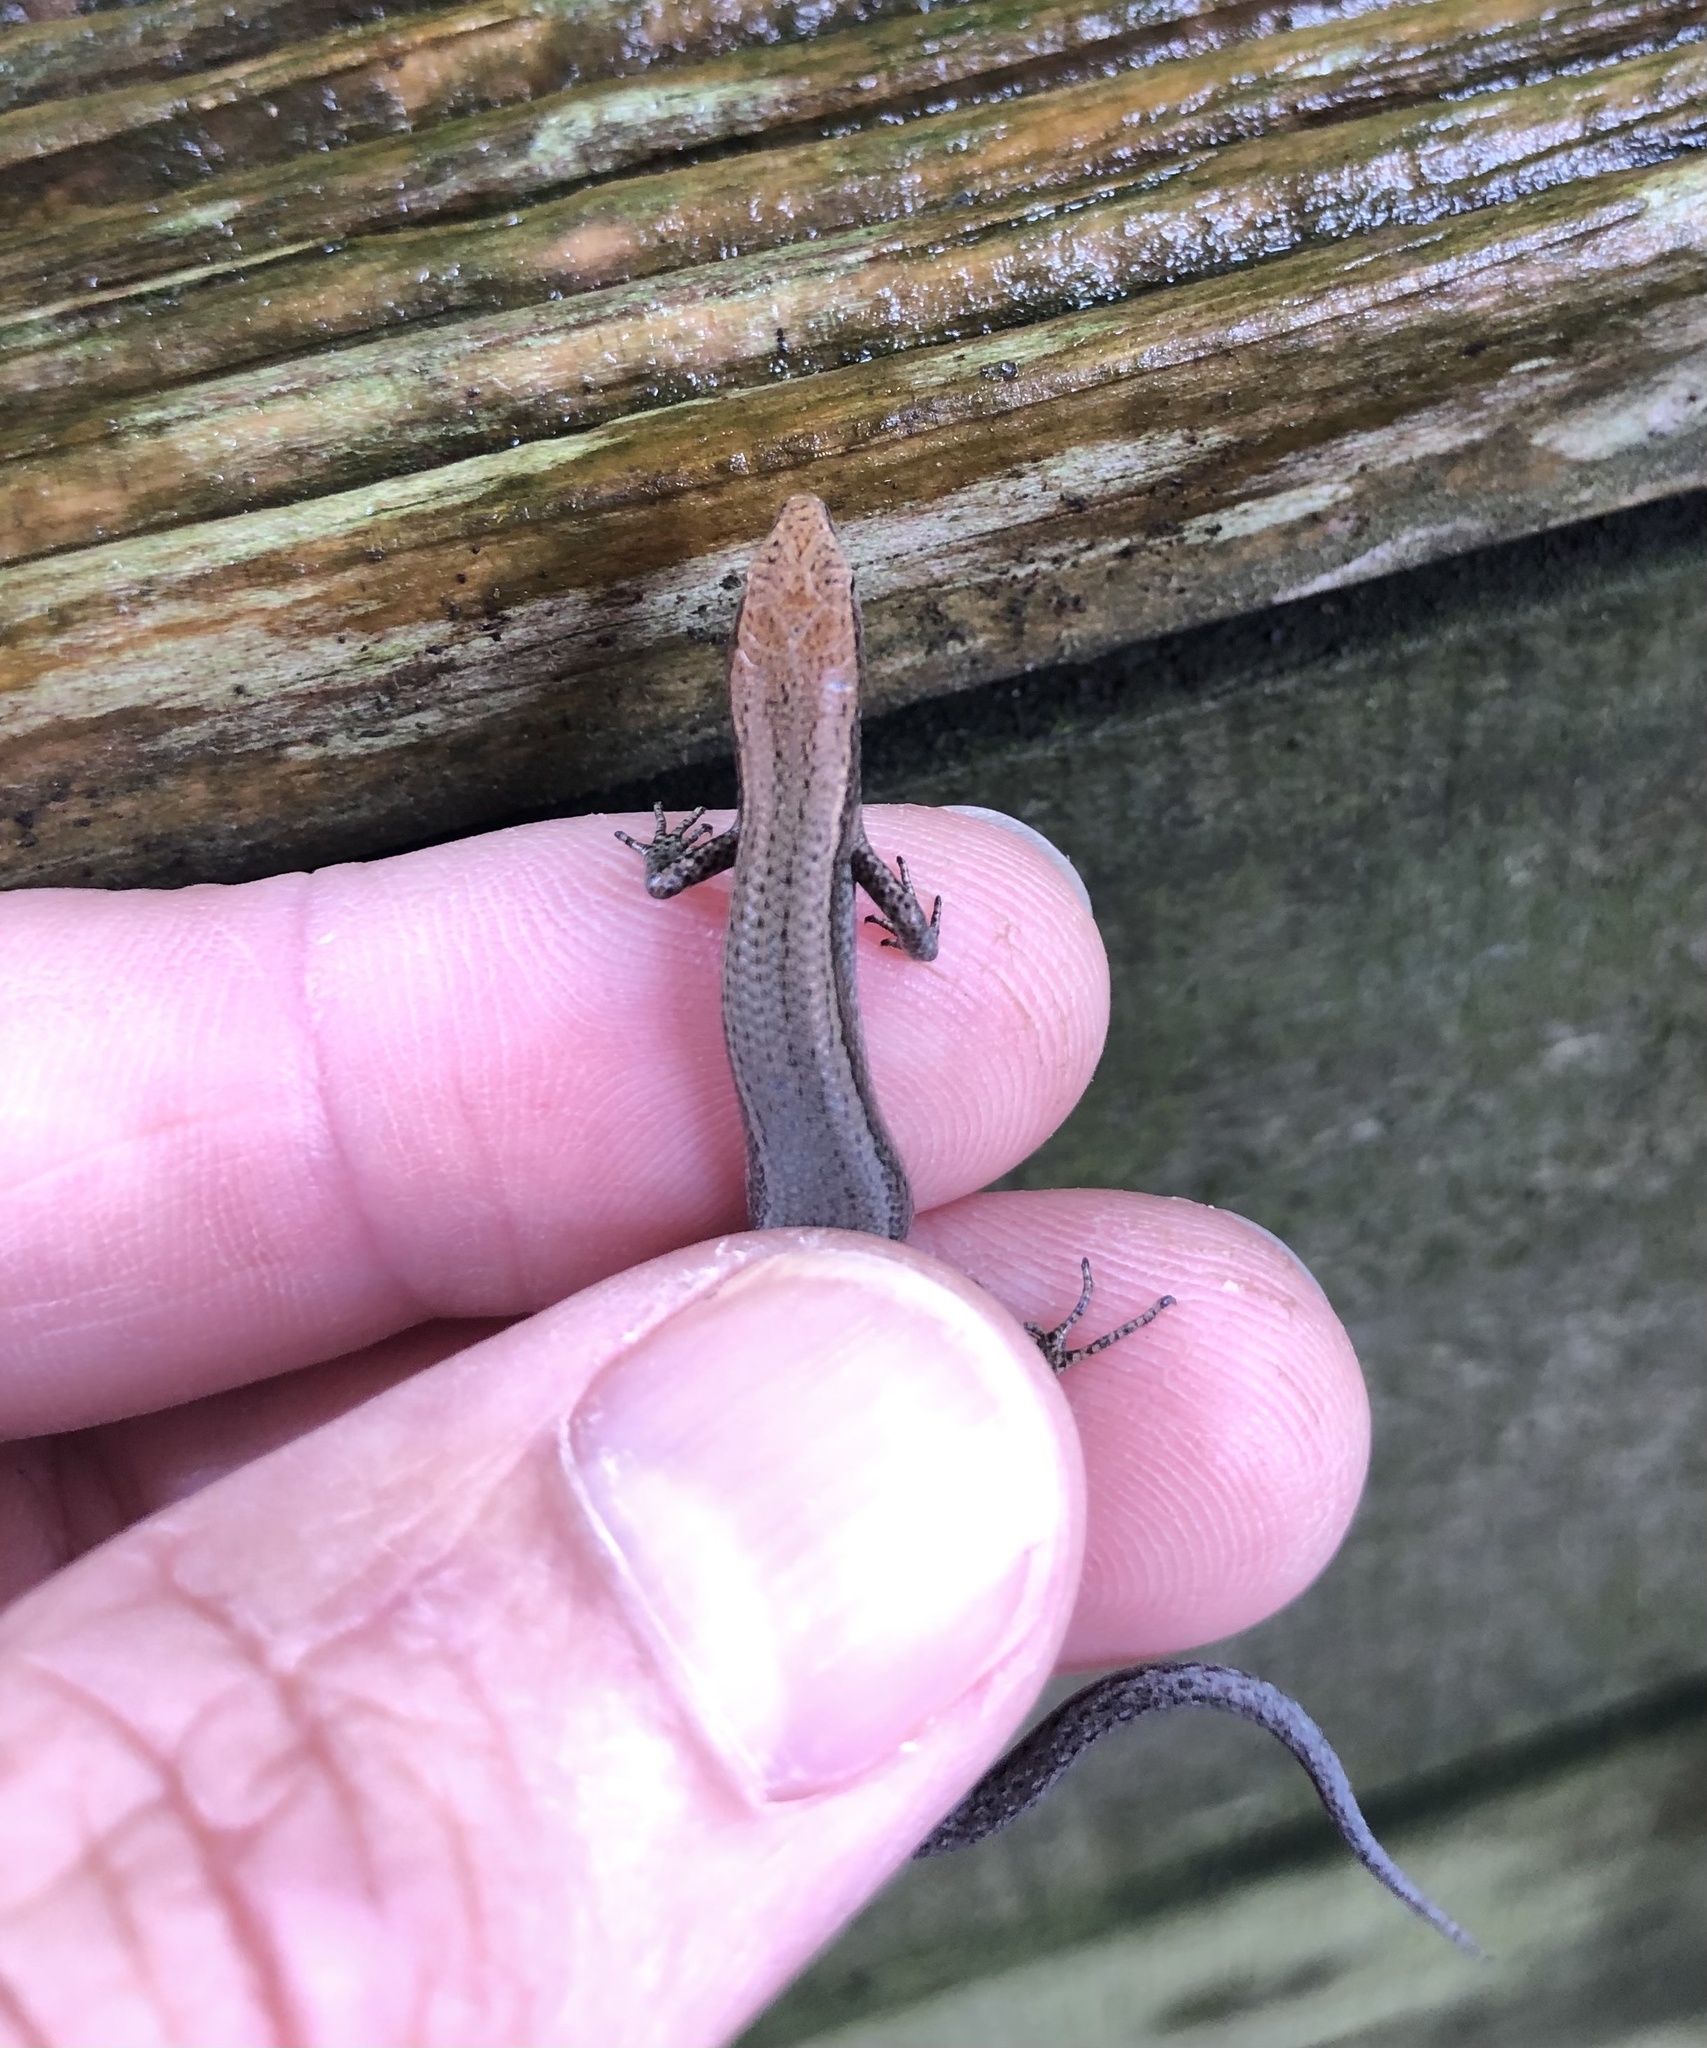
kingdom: Animalia
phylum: Chordata
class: Squamata
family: Scincidae
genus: Lampropholis
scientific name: Lampropholis delicata
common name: Plague skink
